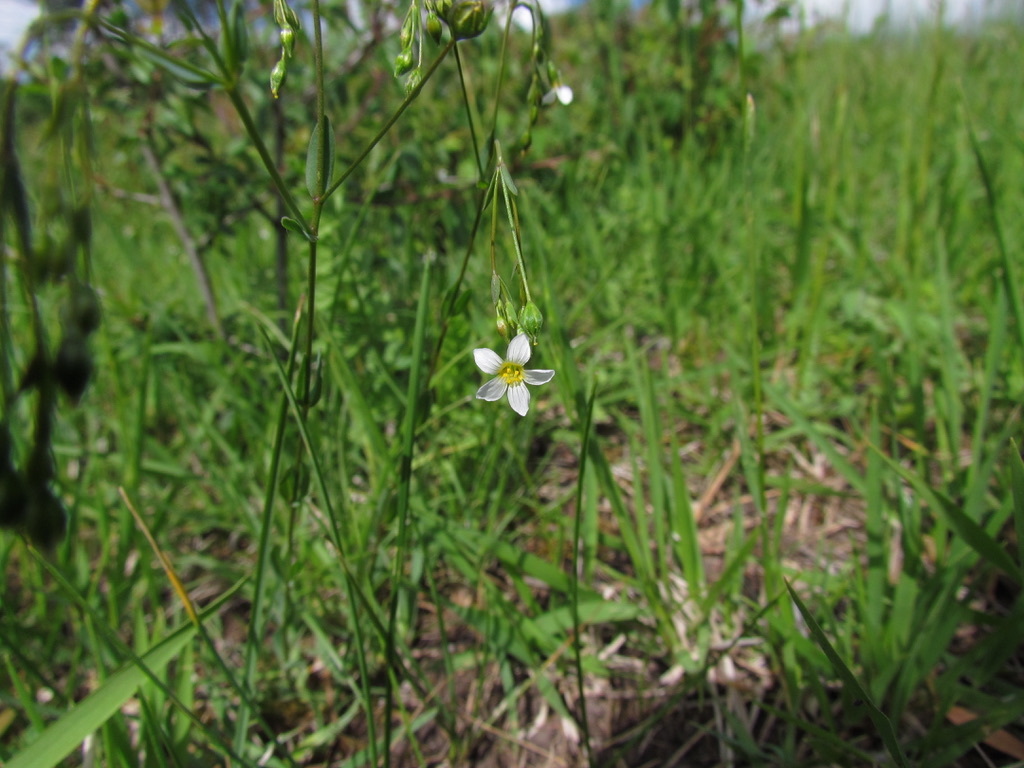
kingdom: Plantae
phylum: Tracheophyta
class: Magnoliopsida
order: Malpighiales
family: Linaceae
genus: Linum
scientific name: Linum catharticum
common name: Fairy flax
